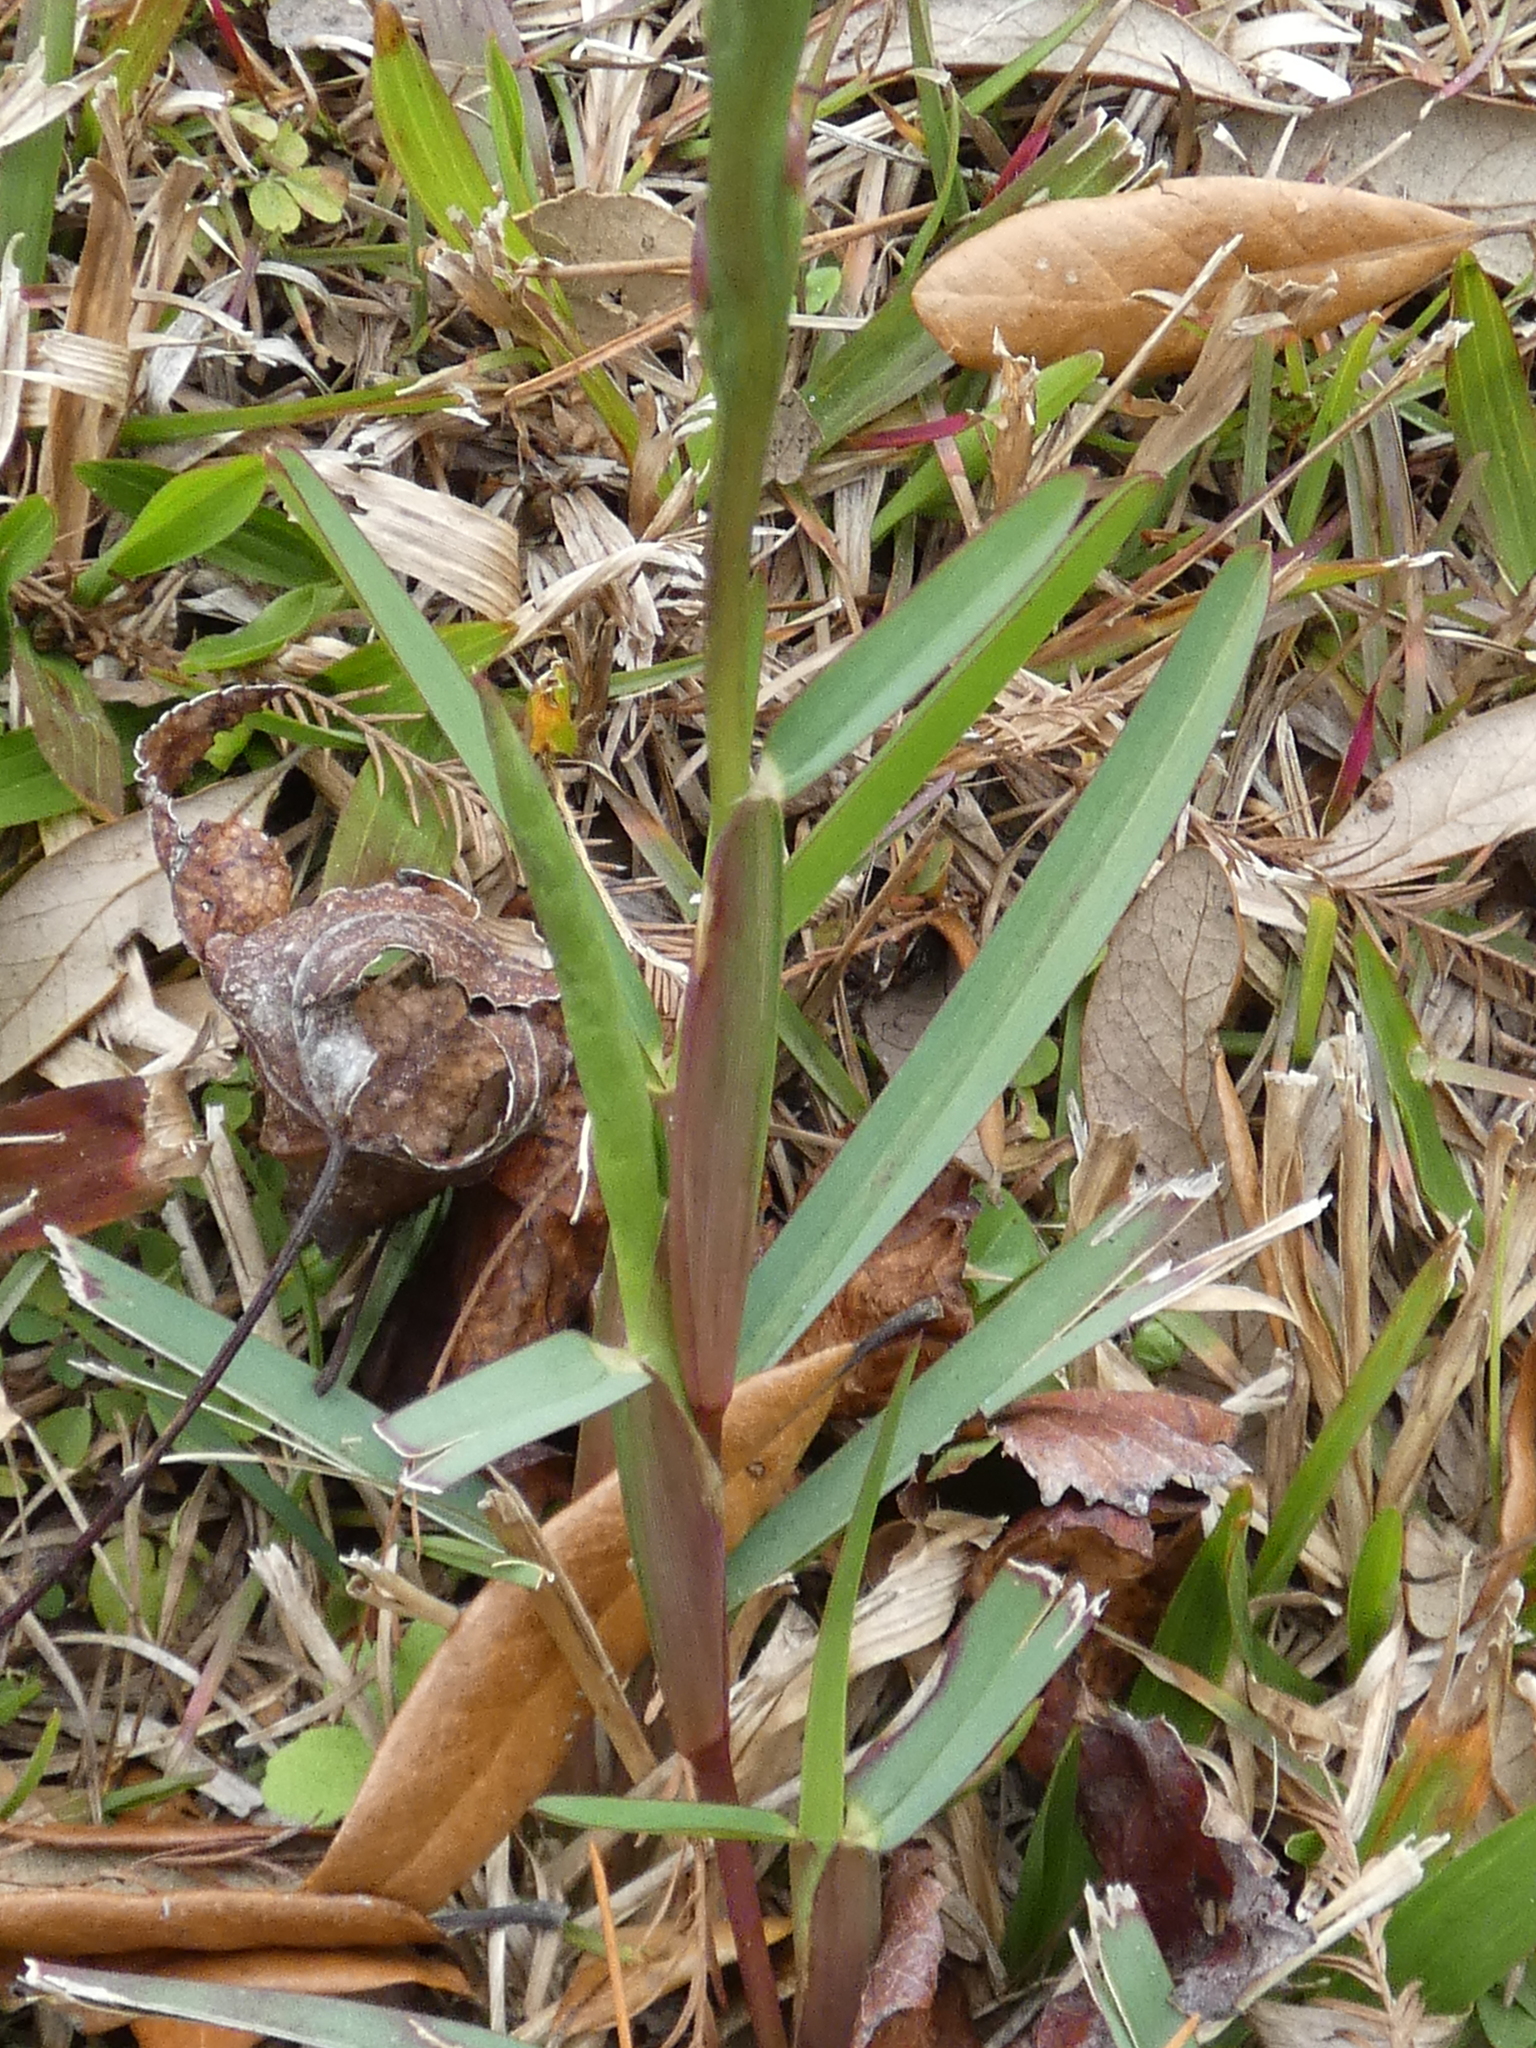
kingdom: Plantae
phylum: Tracheophyta
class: Liliopsida
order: Poales
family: Poaceae
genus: Stenotaphrum
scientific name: Stenotaphrum secundatum
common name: St. augustine grass
